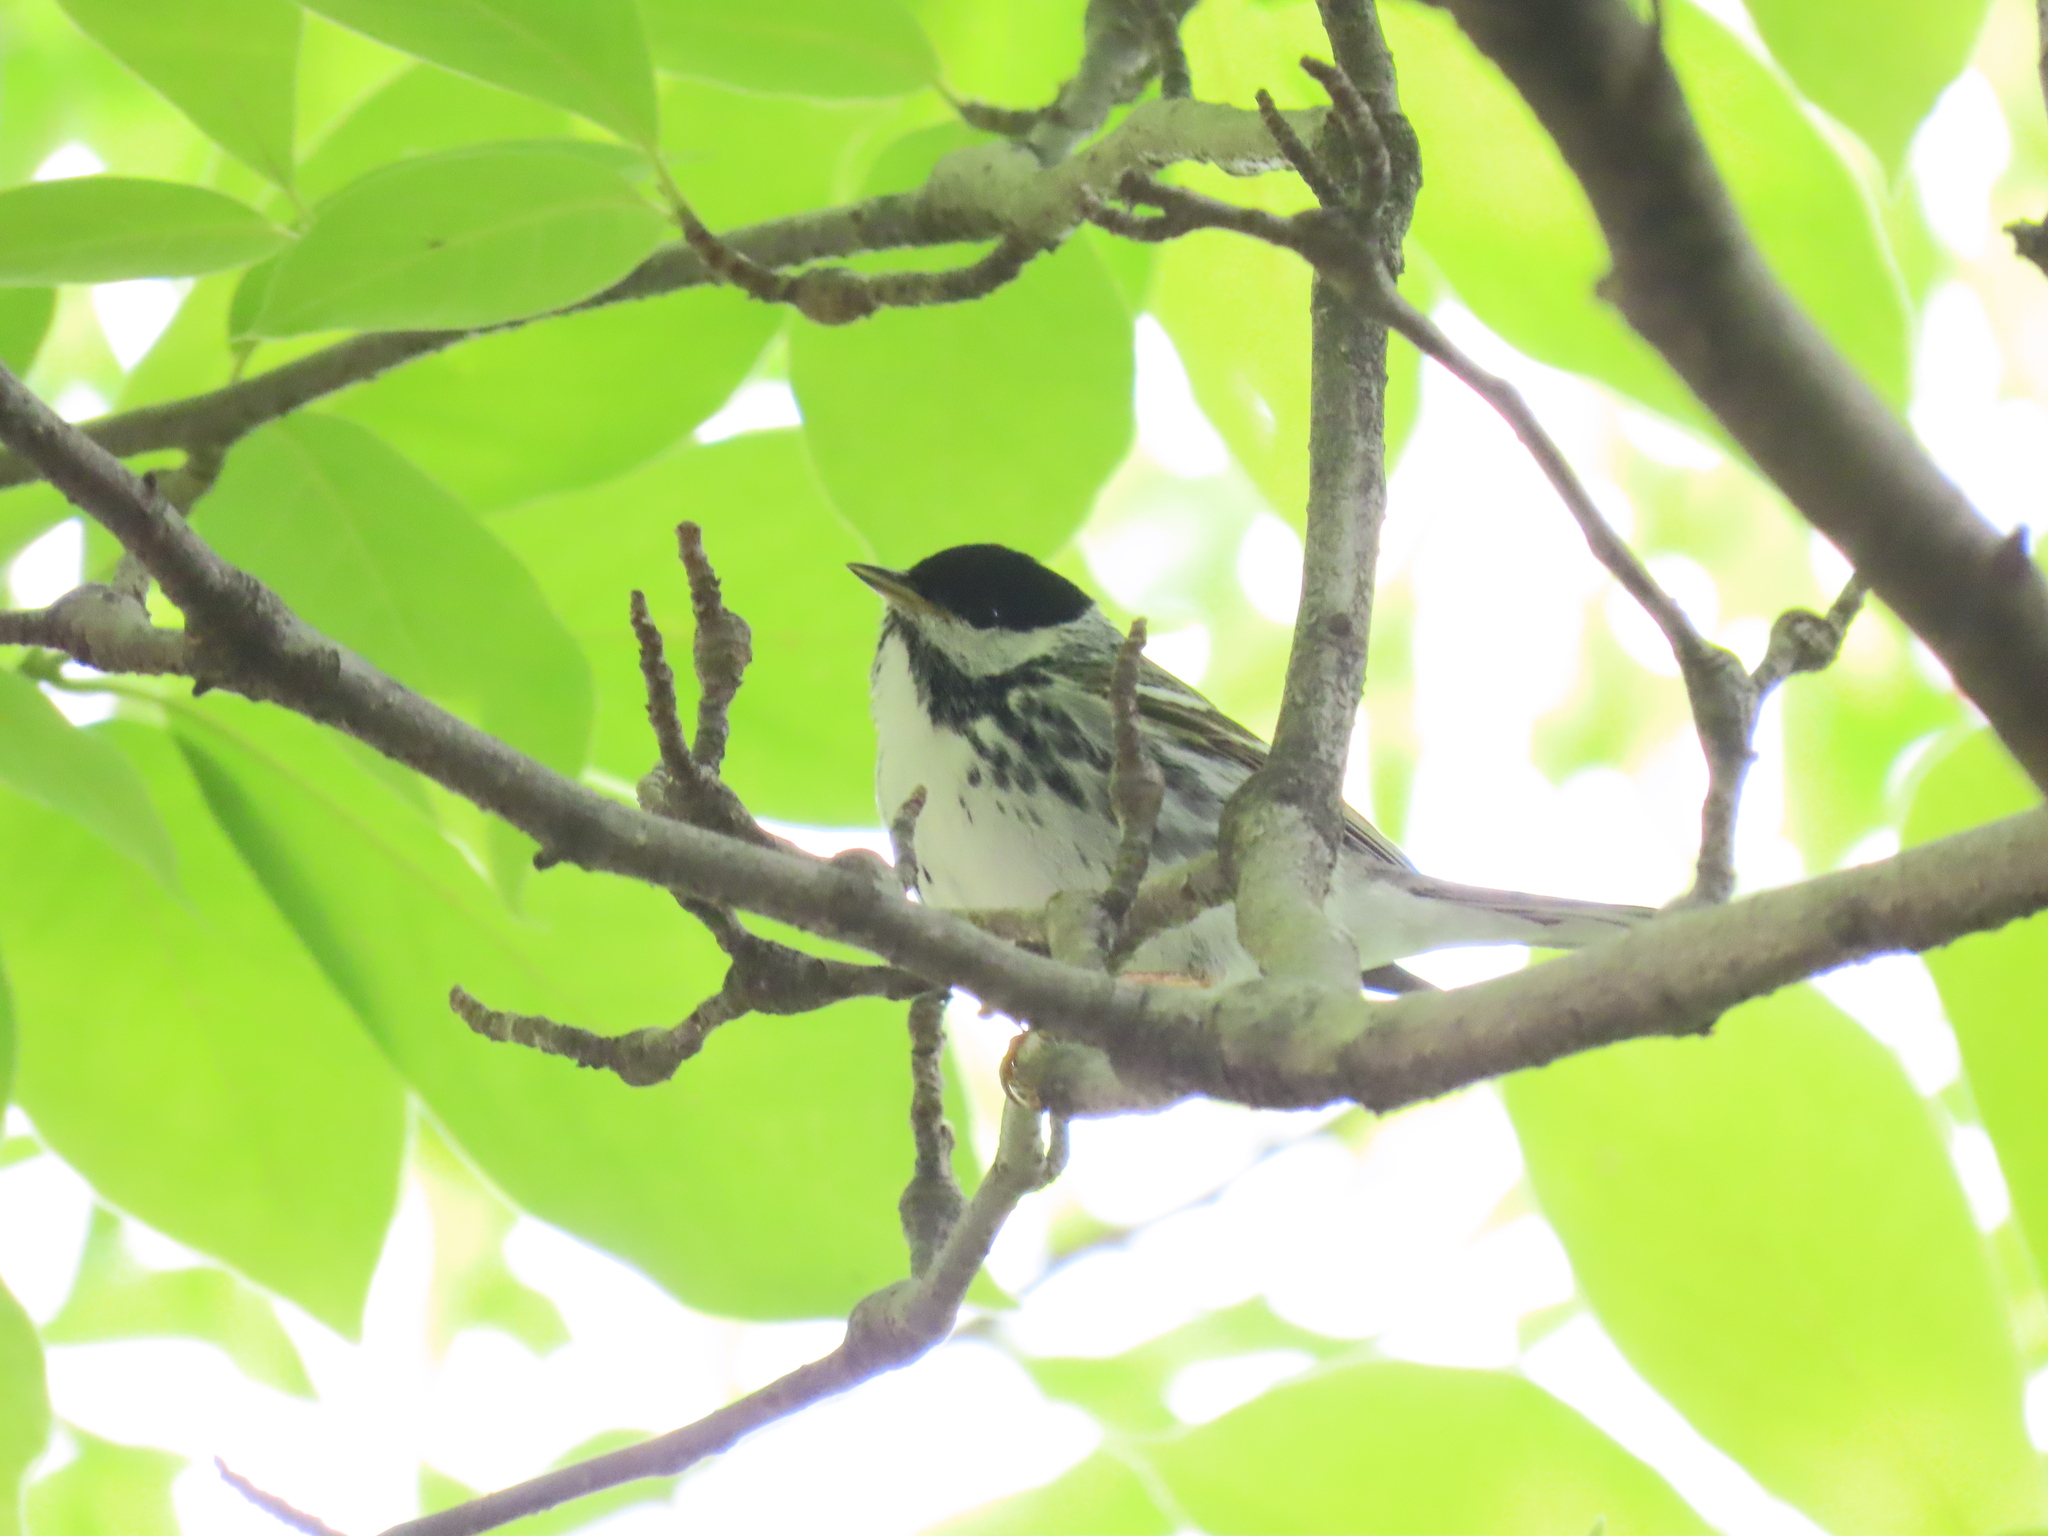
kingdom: Animalia
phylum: Chordata
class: Aves
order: Passeriformes
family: Parulidae
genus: Setophaga
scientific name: Setophaga striata
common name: Blackpoll warbler
